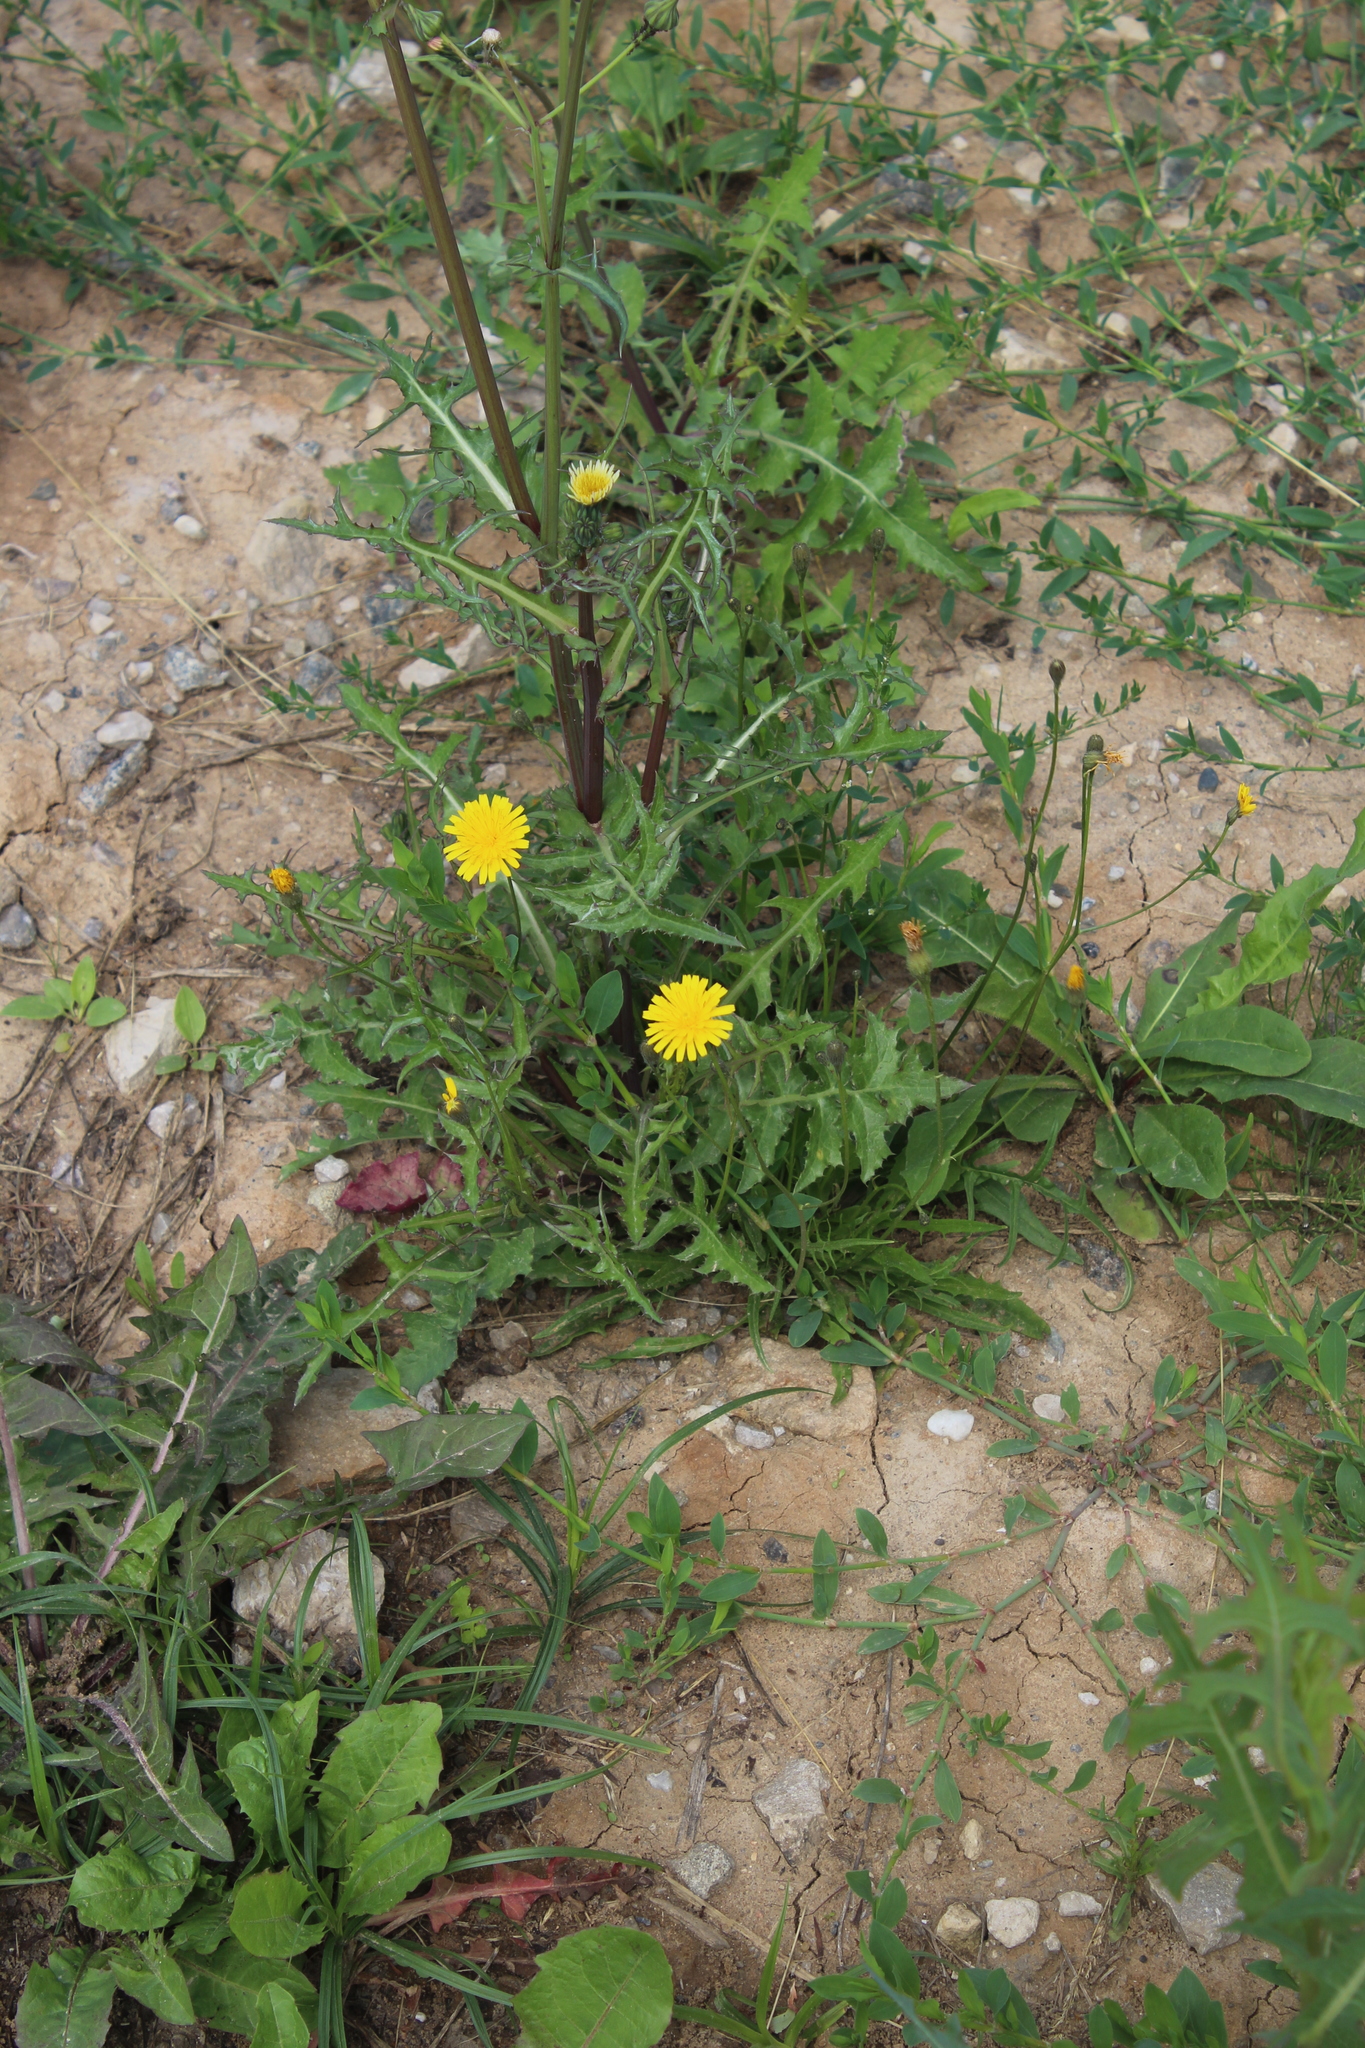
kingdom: Plantae
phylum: Tracheophyta
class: Magnoliopsida
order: Asterales
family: Asteraceae
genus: Scorzoneroides
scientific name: Scorzoneroides autumnalis
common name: Autumn hawkbit
